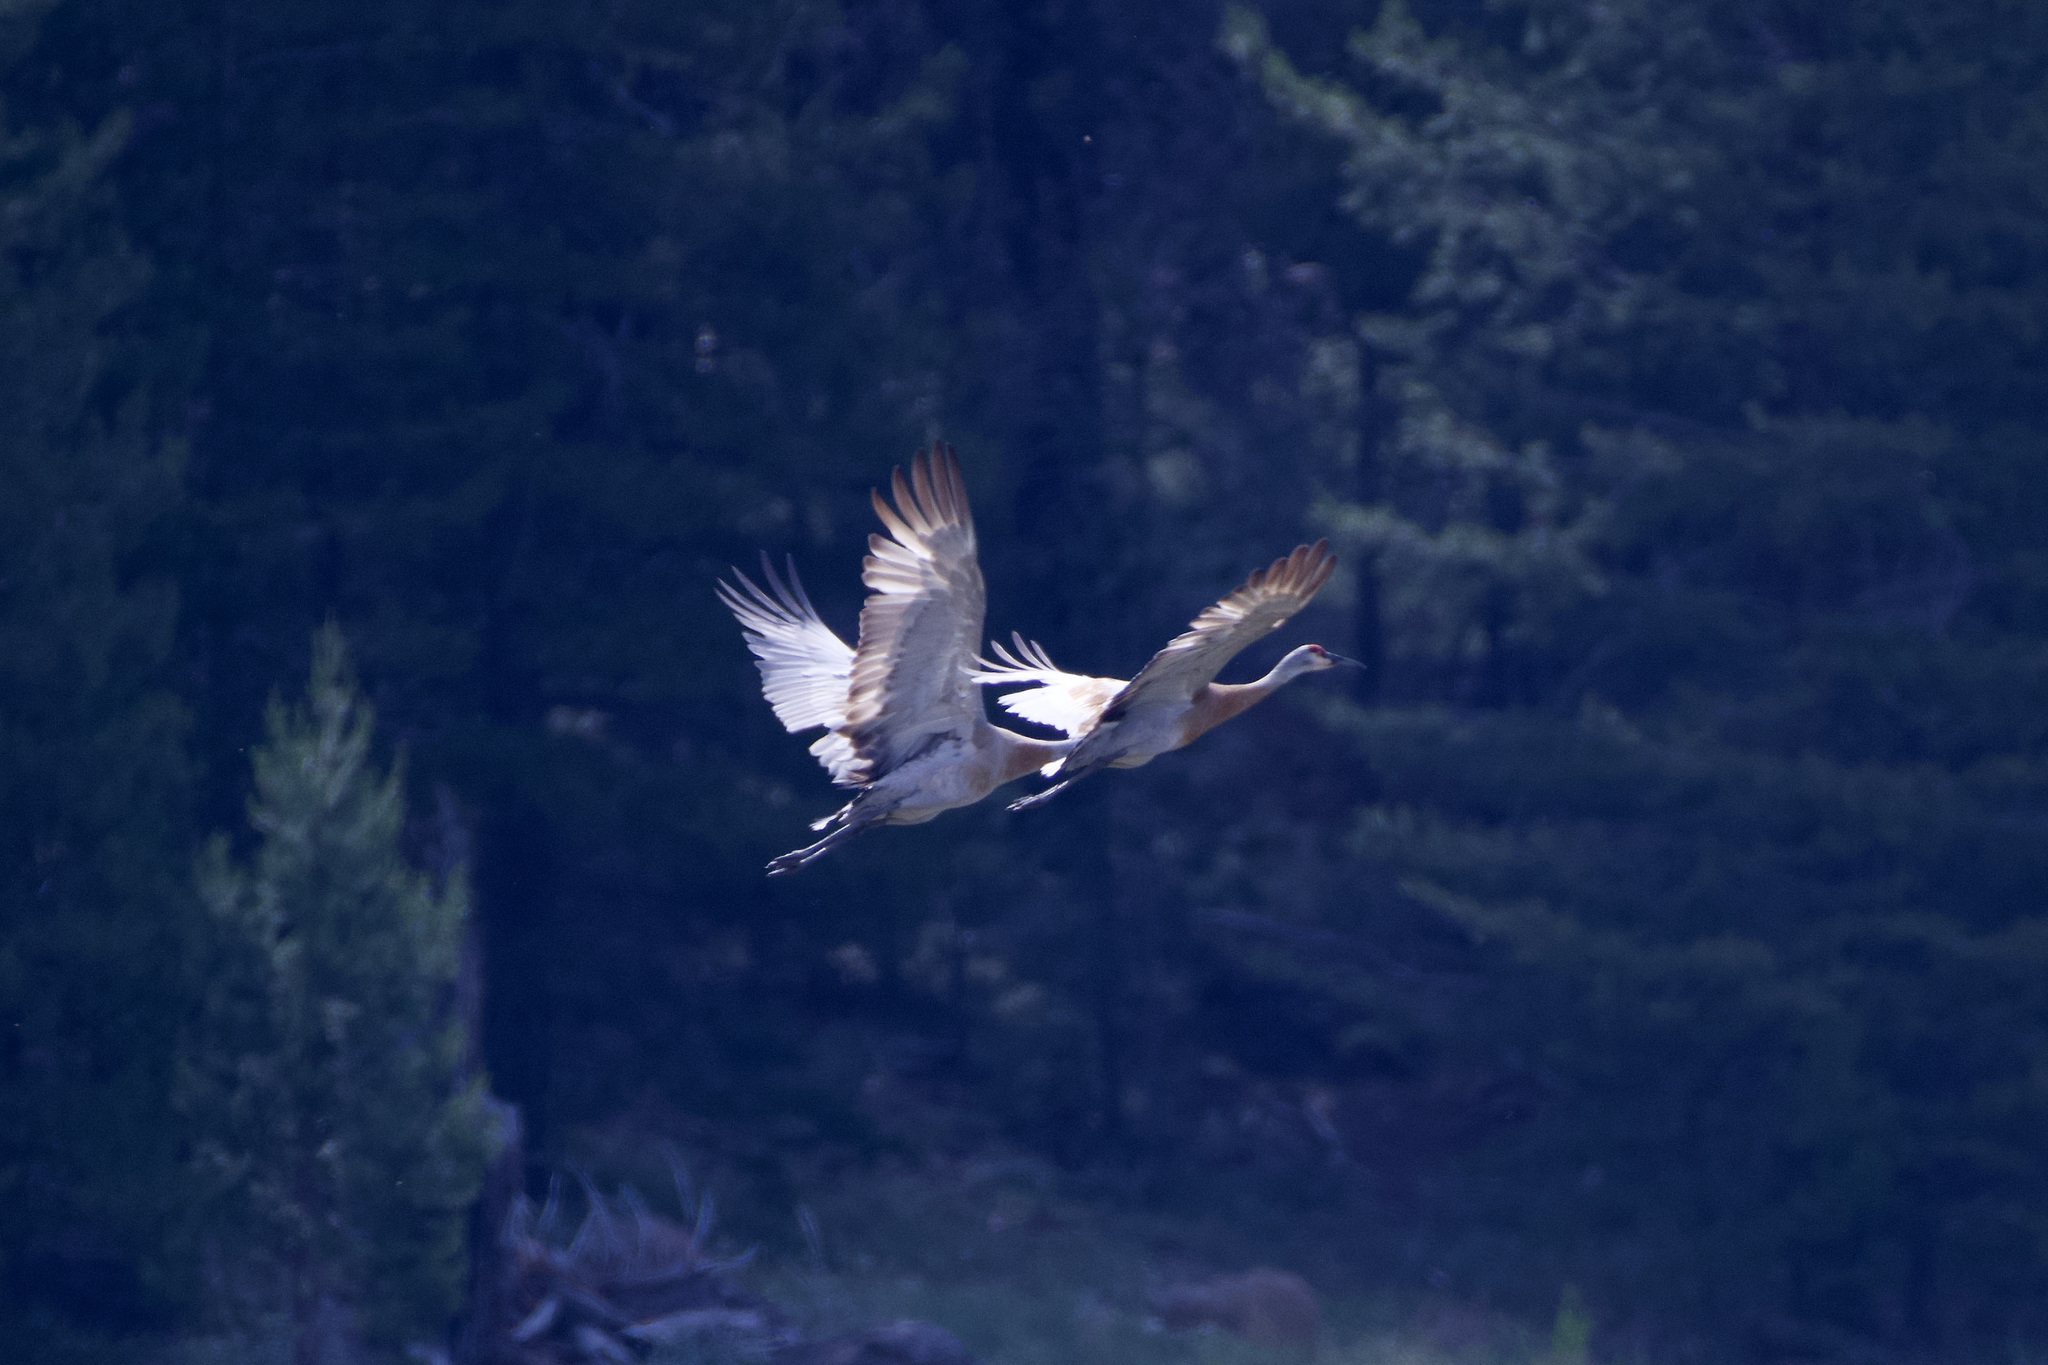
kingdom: Animalia
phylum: Chordata
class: Aves
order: Gruiformes
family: Gruidae
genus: Grus
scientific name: Grus canadensis
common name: Sandhill crane
